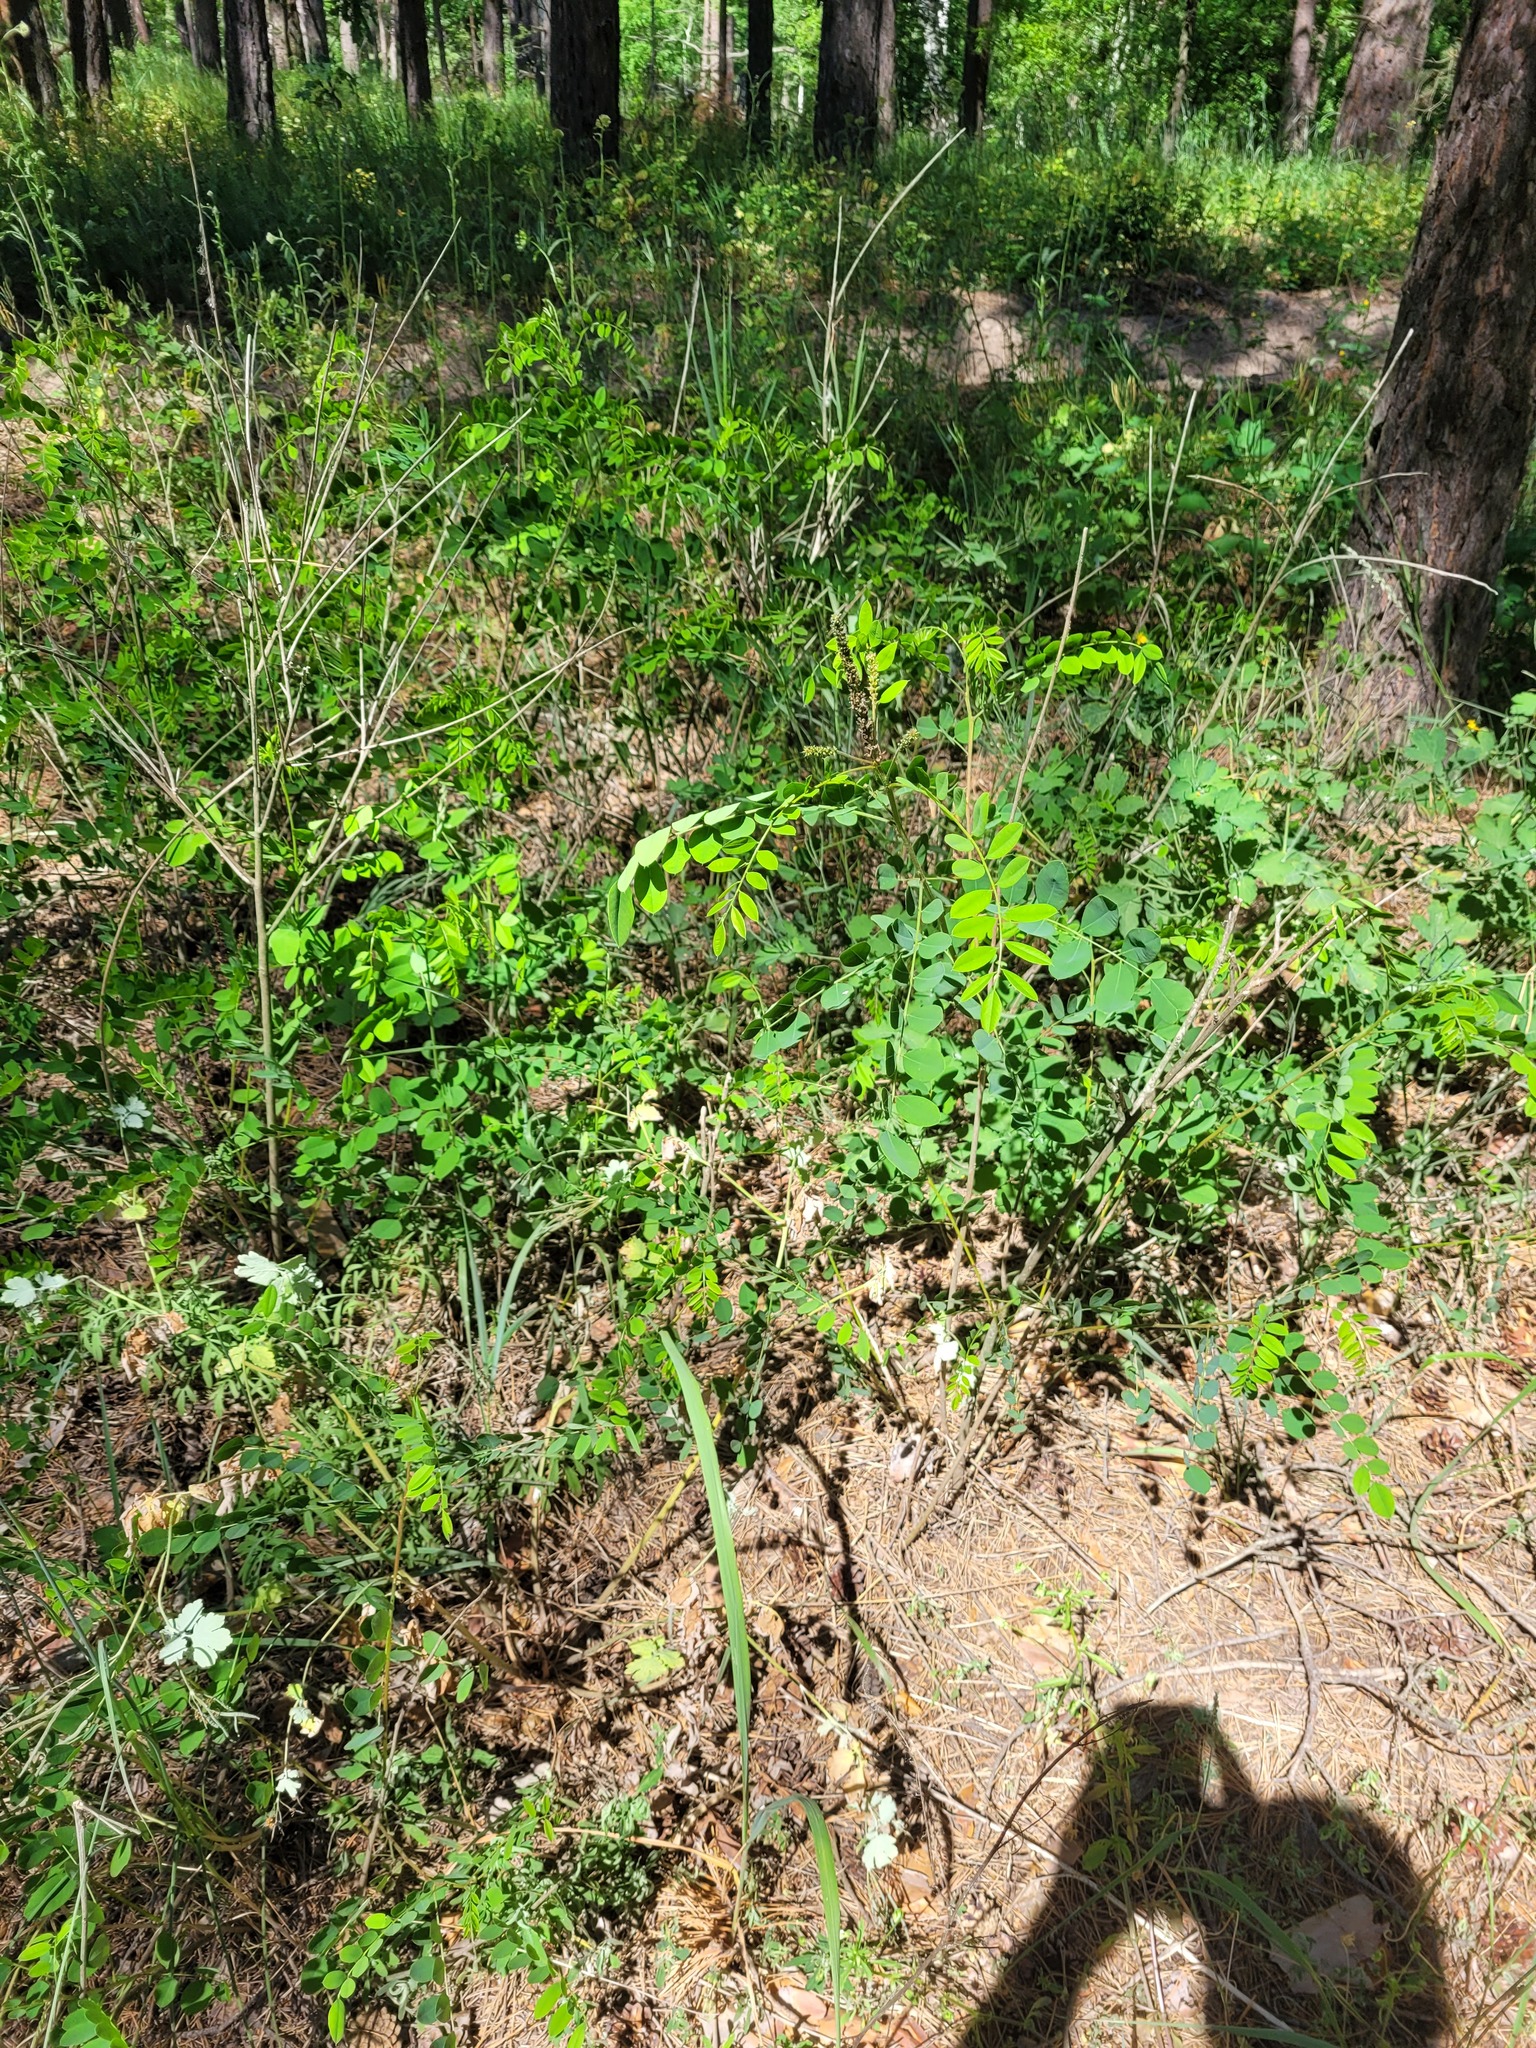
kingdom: Plantae
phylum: Tracheophyta
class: Magnoliopsida
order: Fabales
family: Fabaceae
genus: Amorpha
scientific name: Amorpha fruticosa
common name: False indigo
